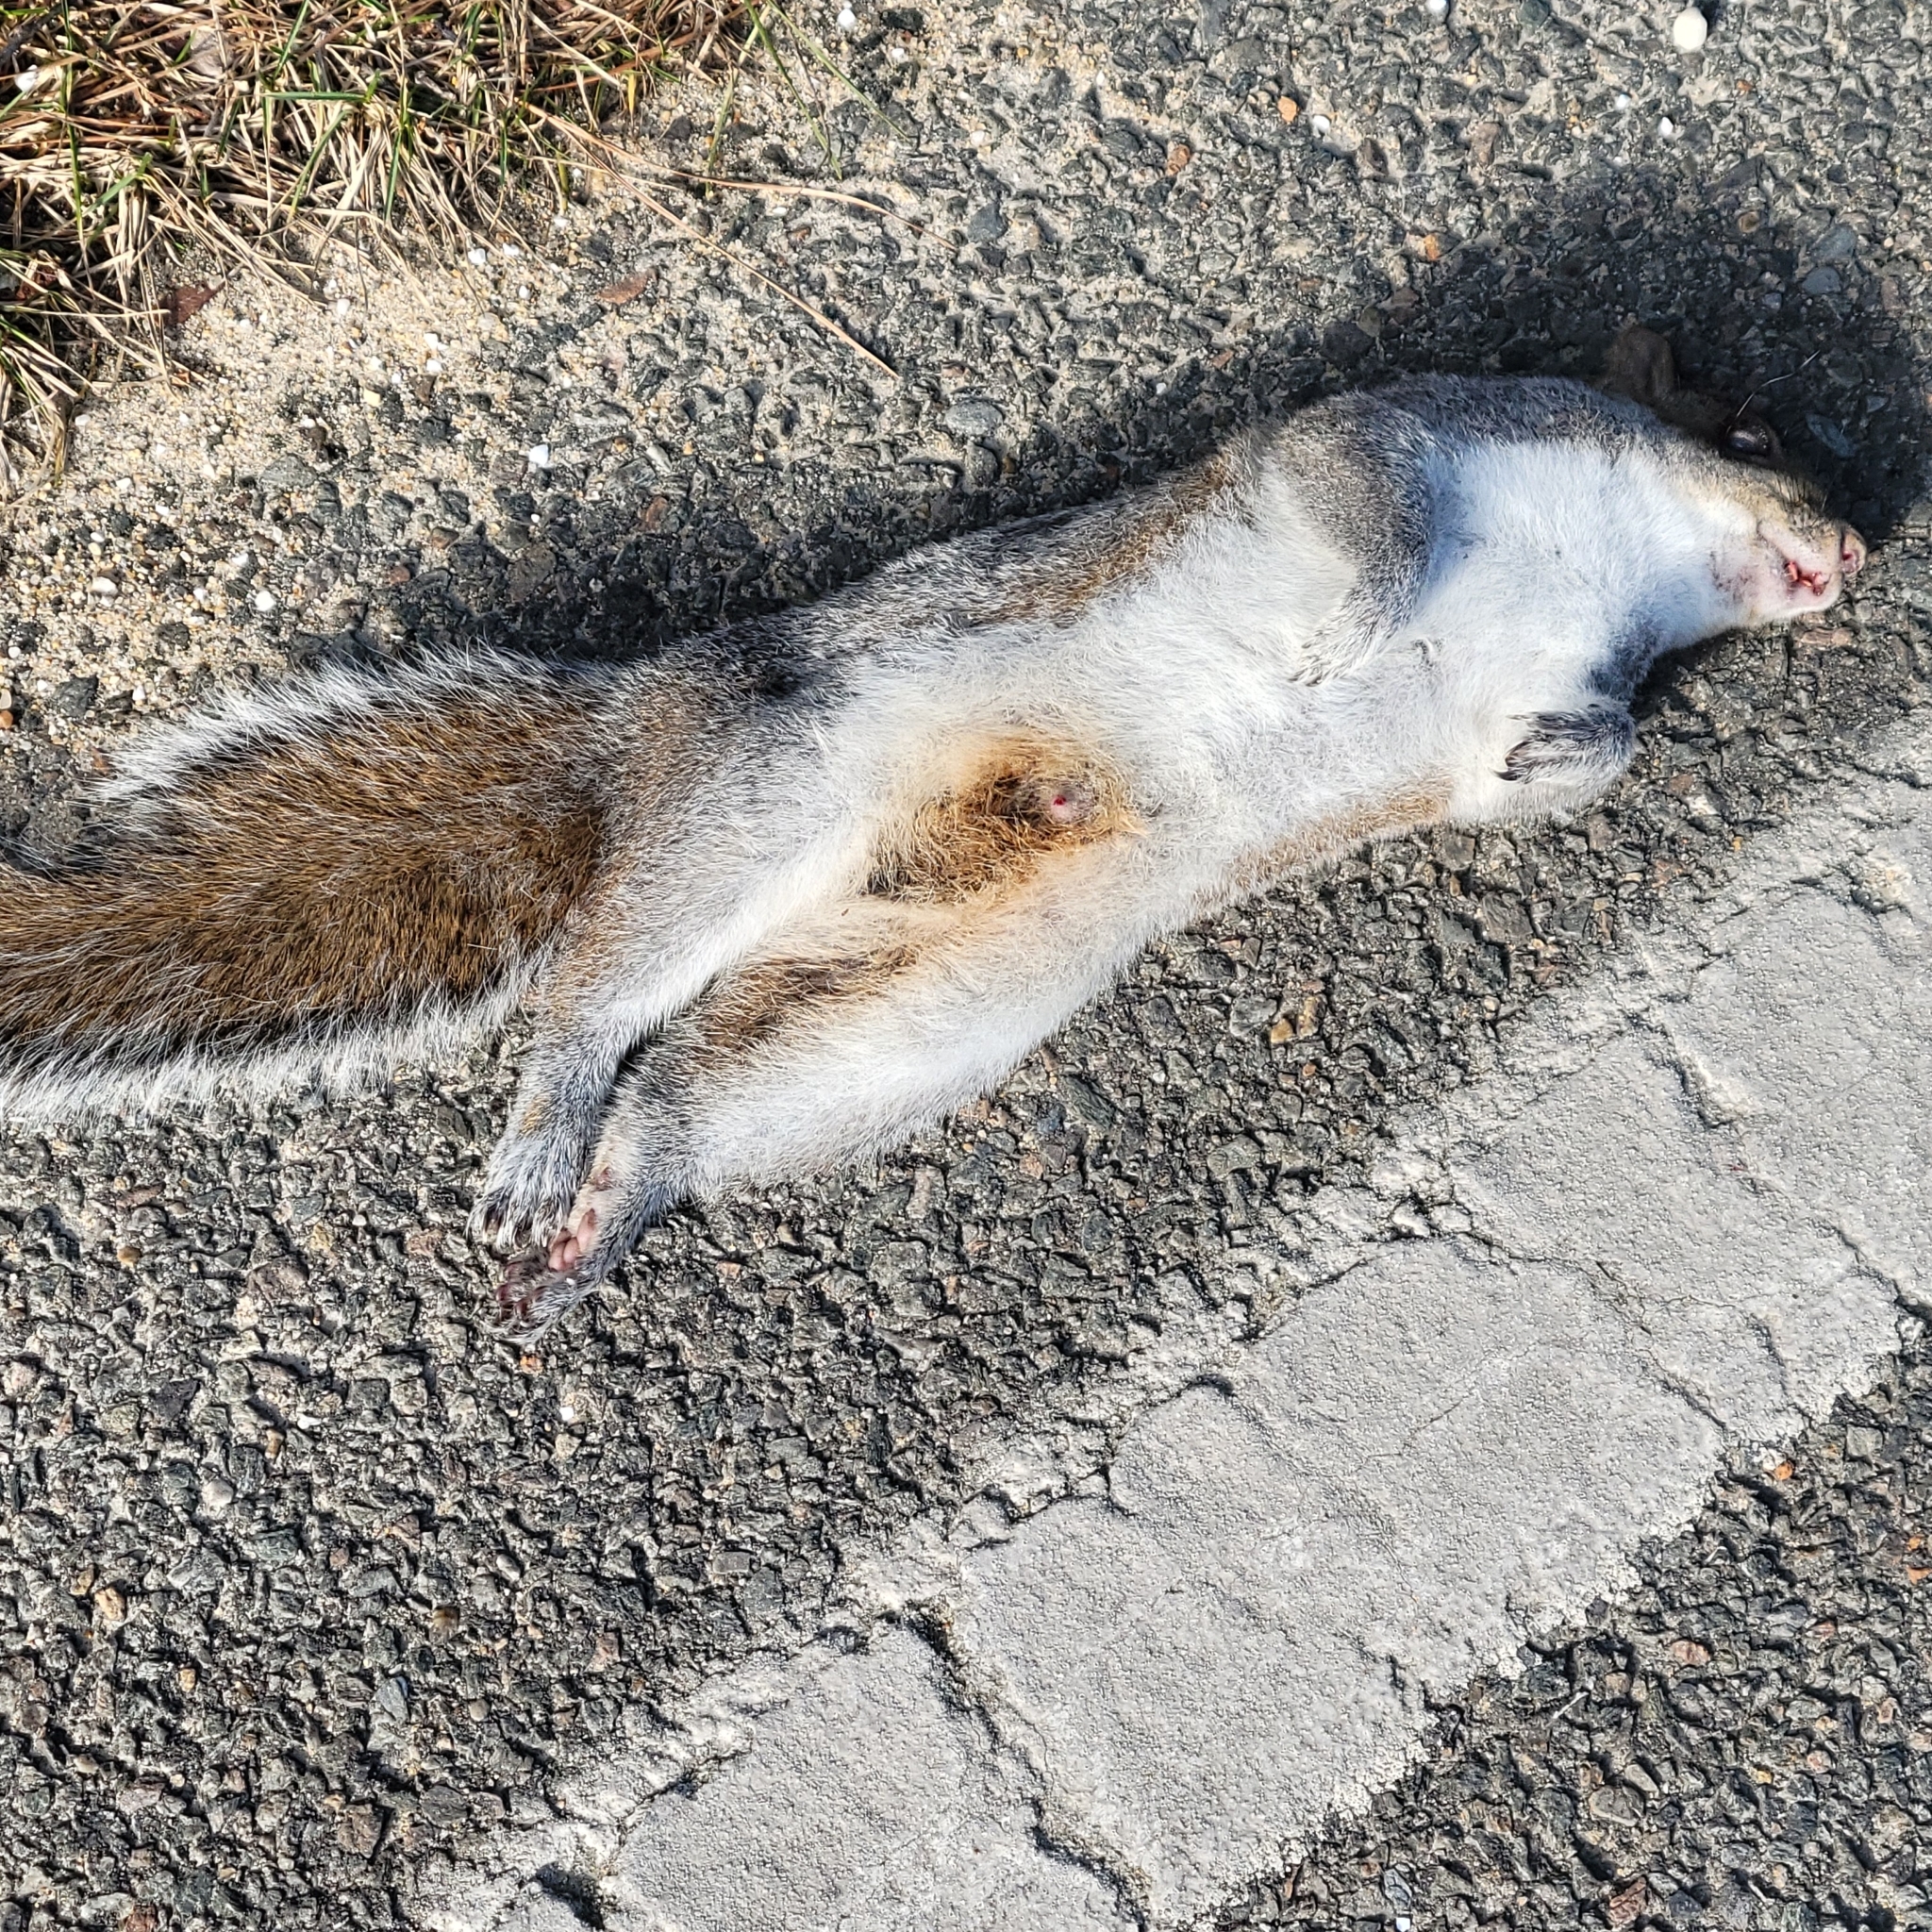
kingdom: Animalia
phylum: Chordata
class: Mammalia
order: Rodentia
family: Sciuridae
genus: Sciurus
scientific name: Sciurus carolinensis
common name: Eastern gray squirrel
